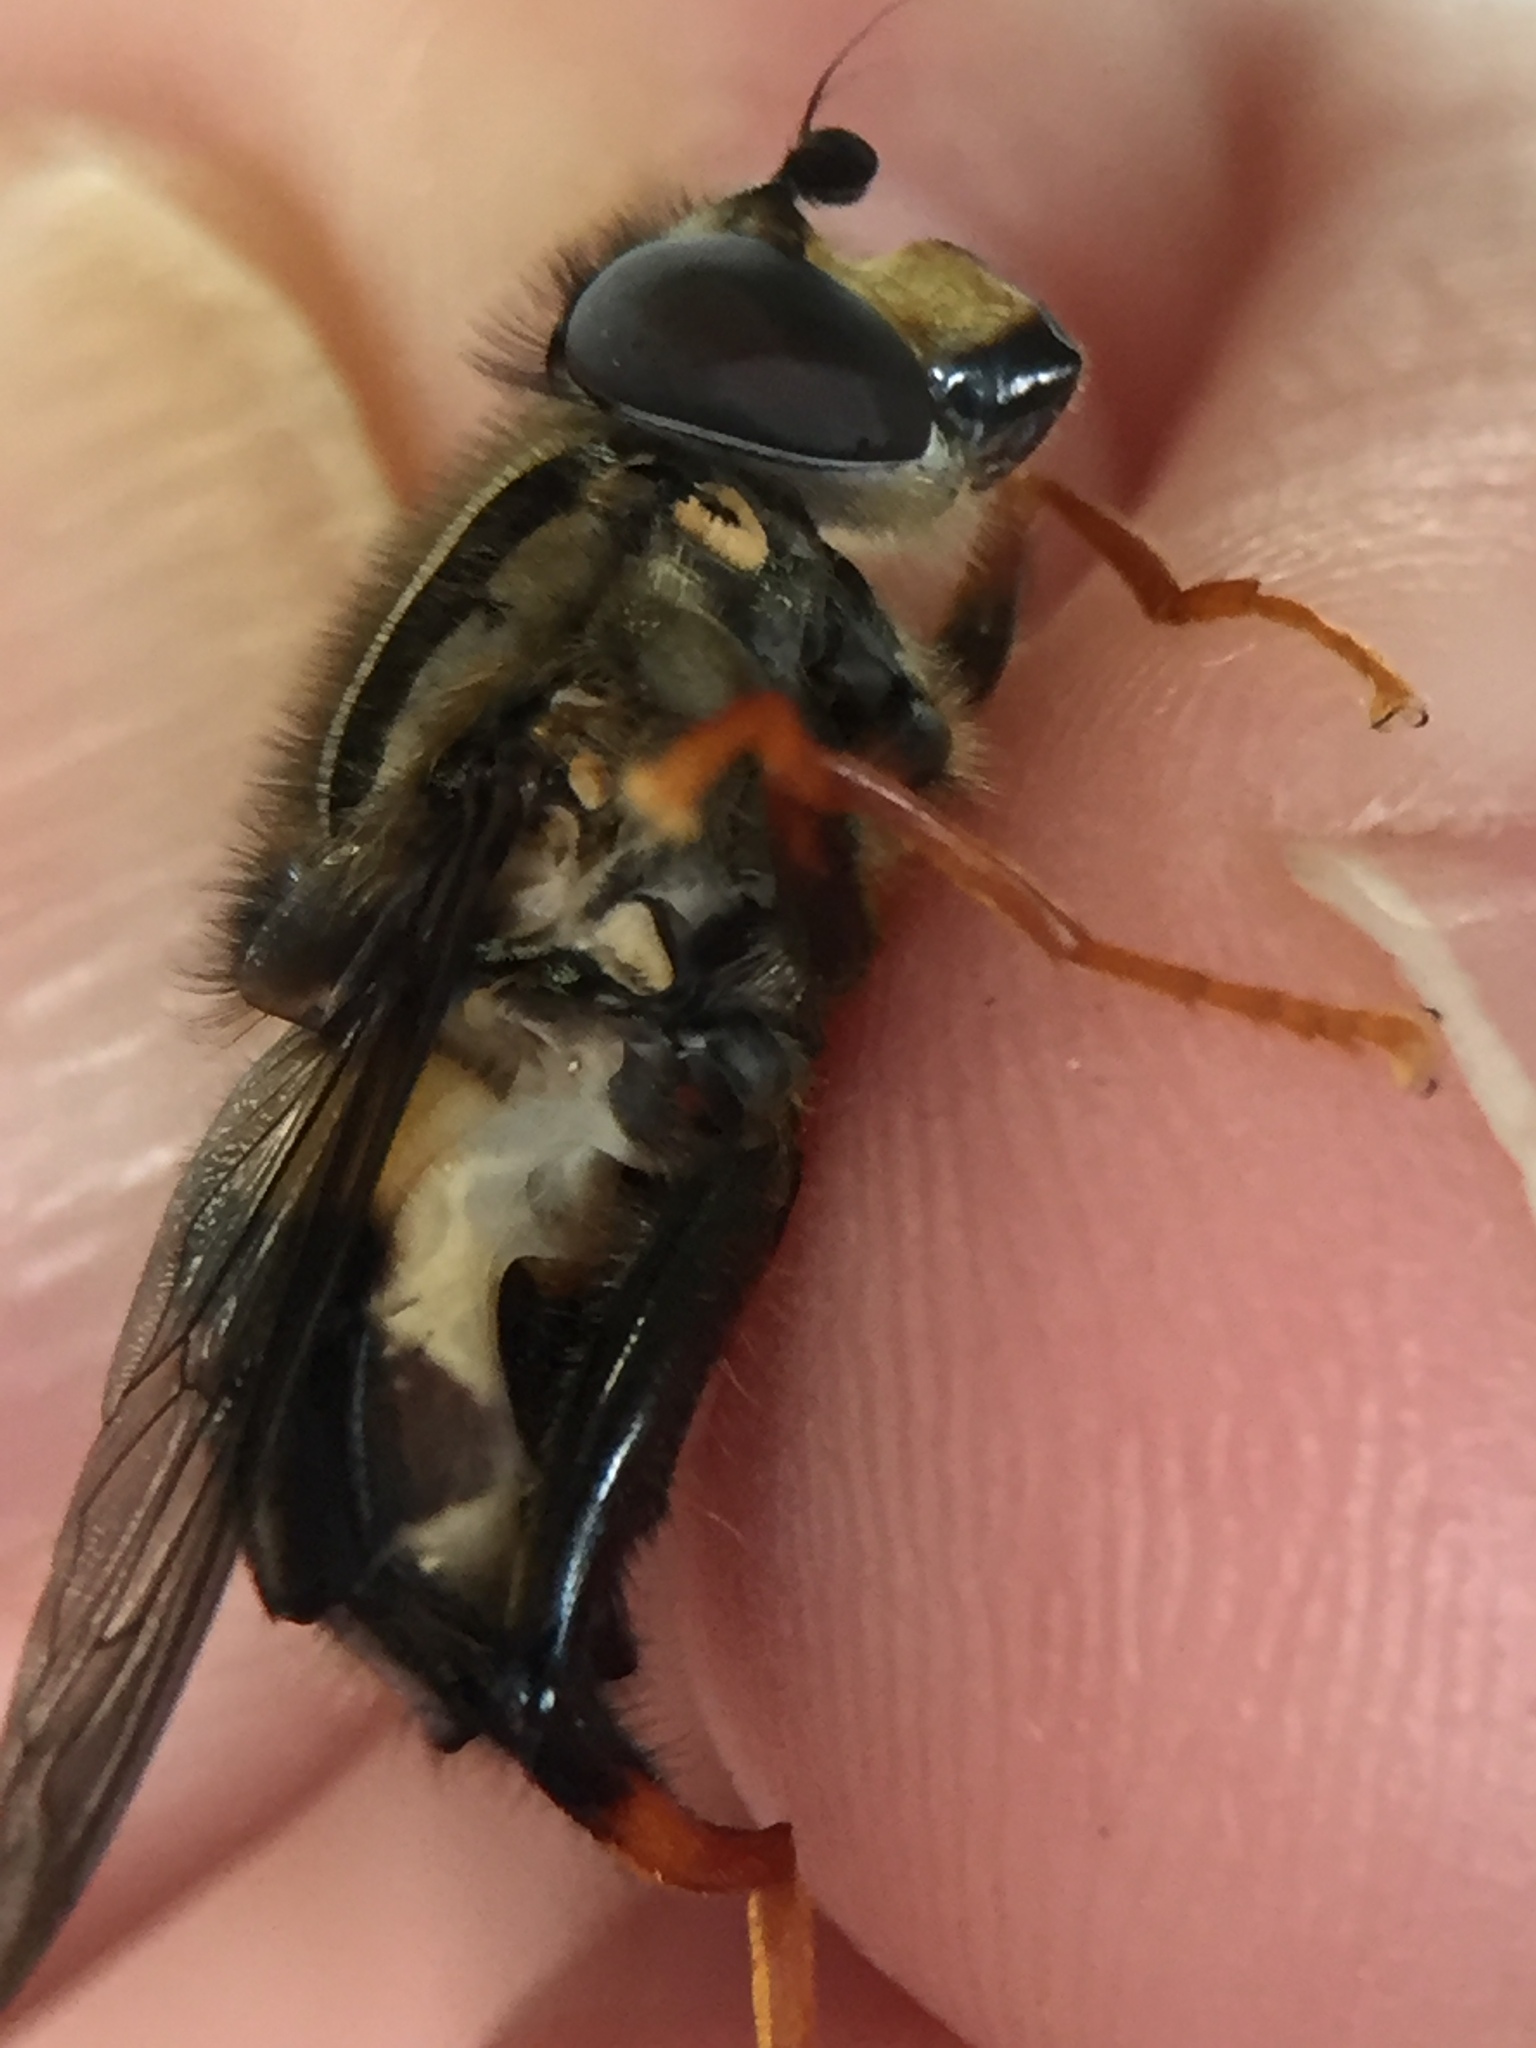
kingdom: Animalia
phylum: Arthropoda
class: Insecta
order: Diptera
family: Syrphidae
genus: Helophilus
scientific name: Helophilus seelandicus
